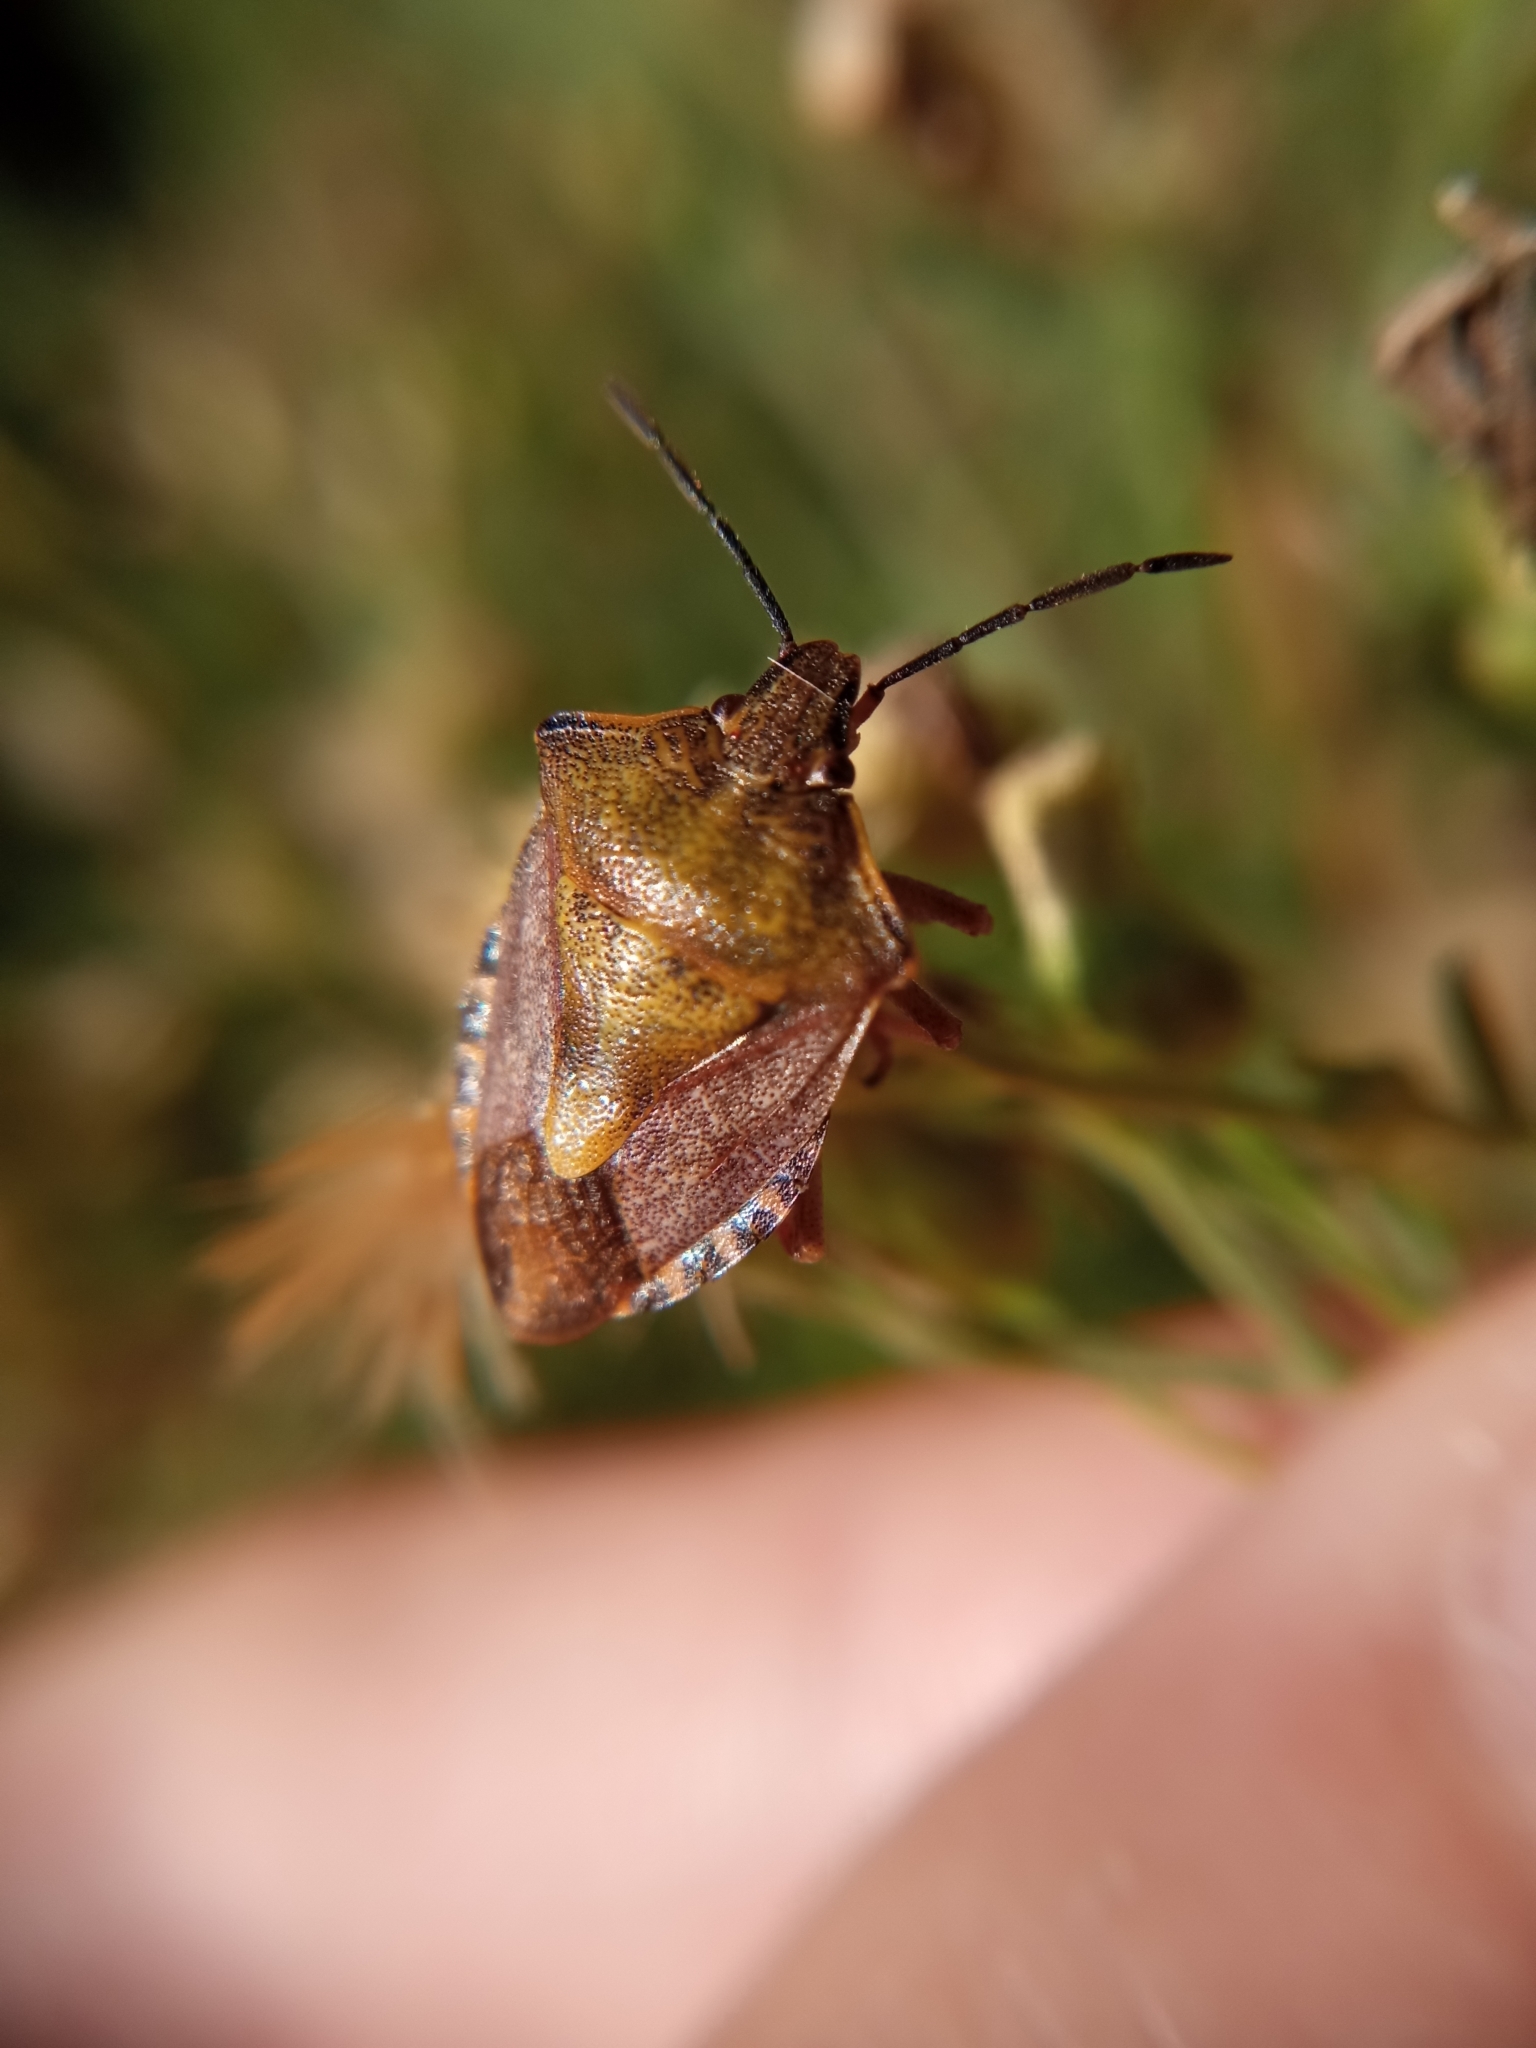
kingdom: Animalia
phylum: Arthropoda
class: Insecta
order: Hemiptera
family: Pentatomidae
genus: Carpocoris
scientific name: Carpocoris purpureipennis
